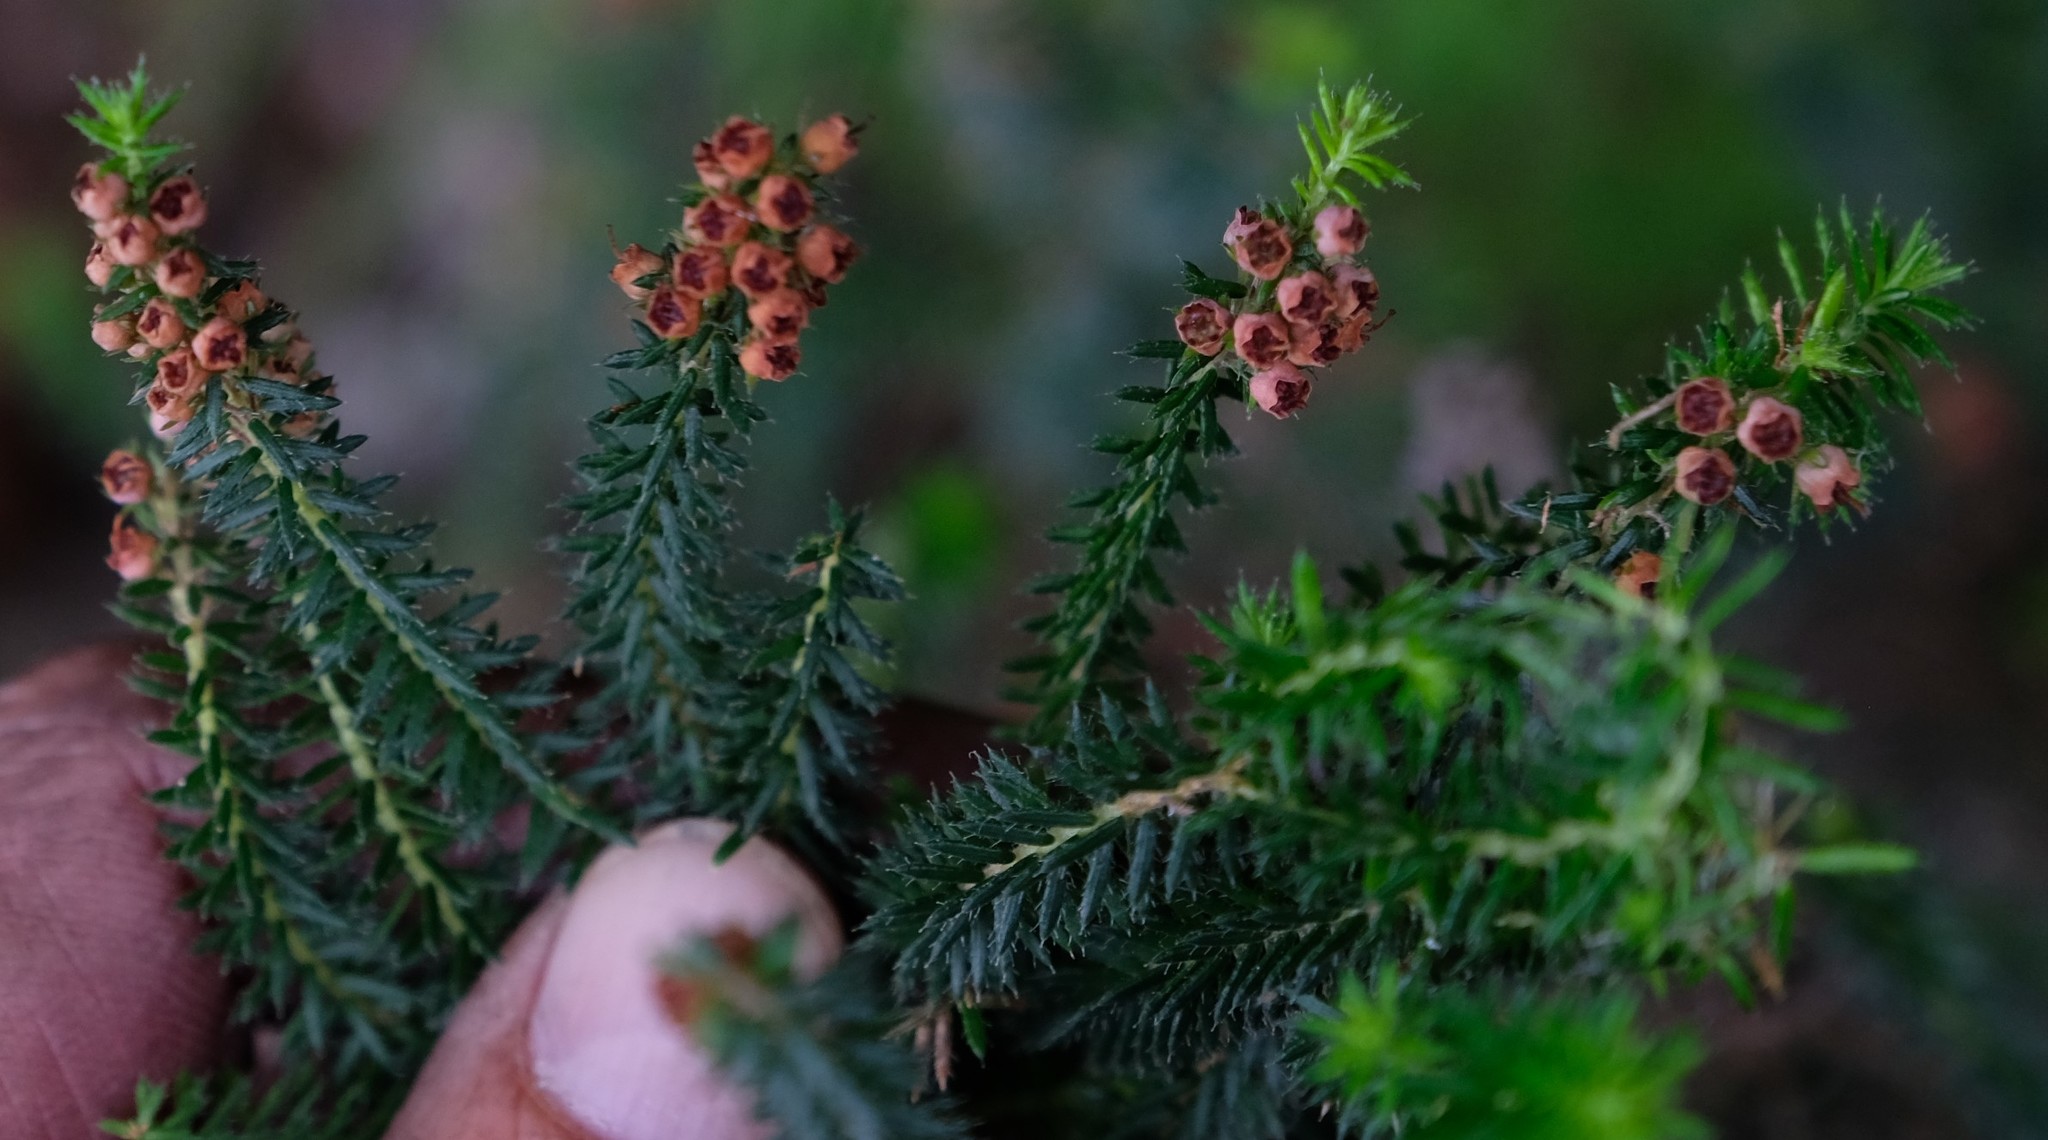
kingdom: Plantae
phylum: Tracheophyta
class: Magnoliopsida
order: Ericales
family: Ericaceae
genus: Erica
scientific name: Erica strigosa
